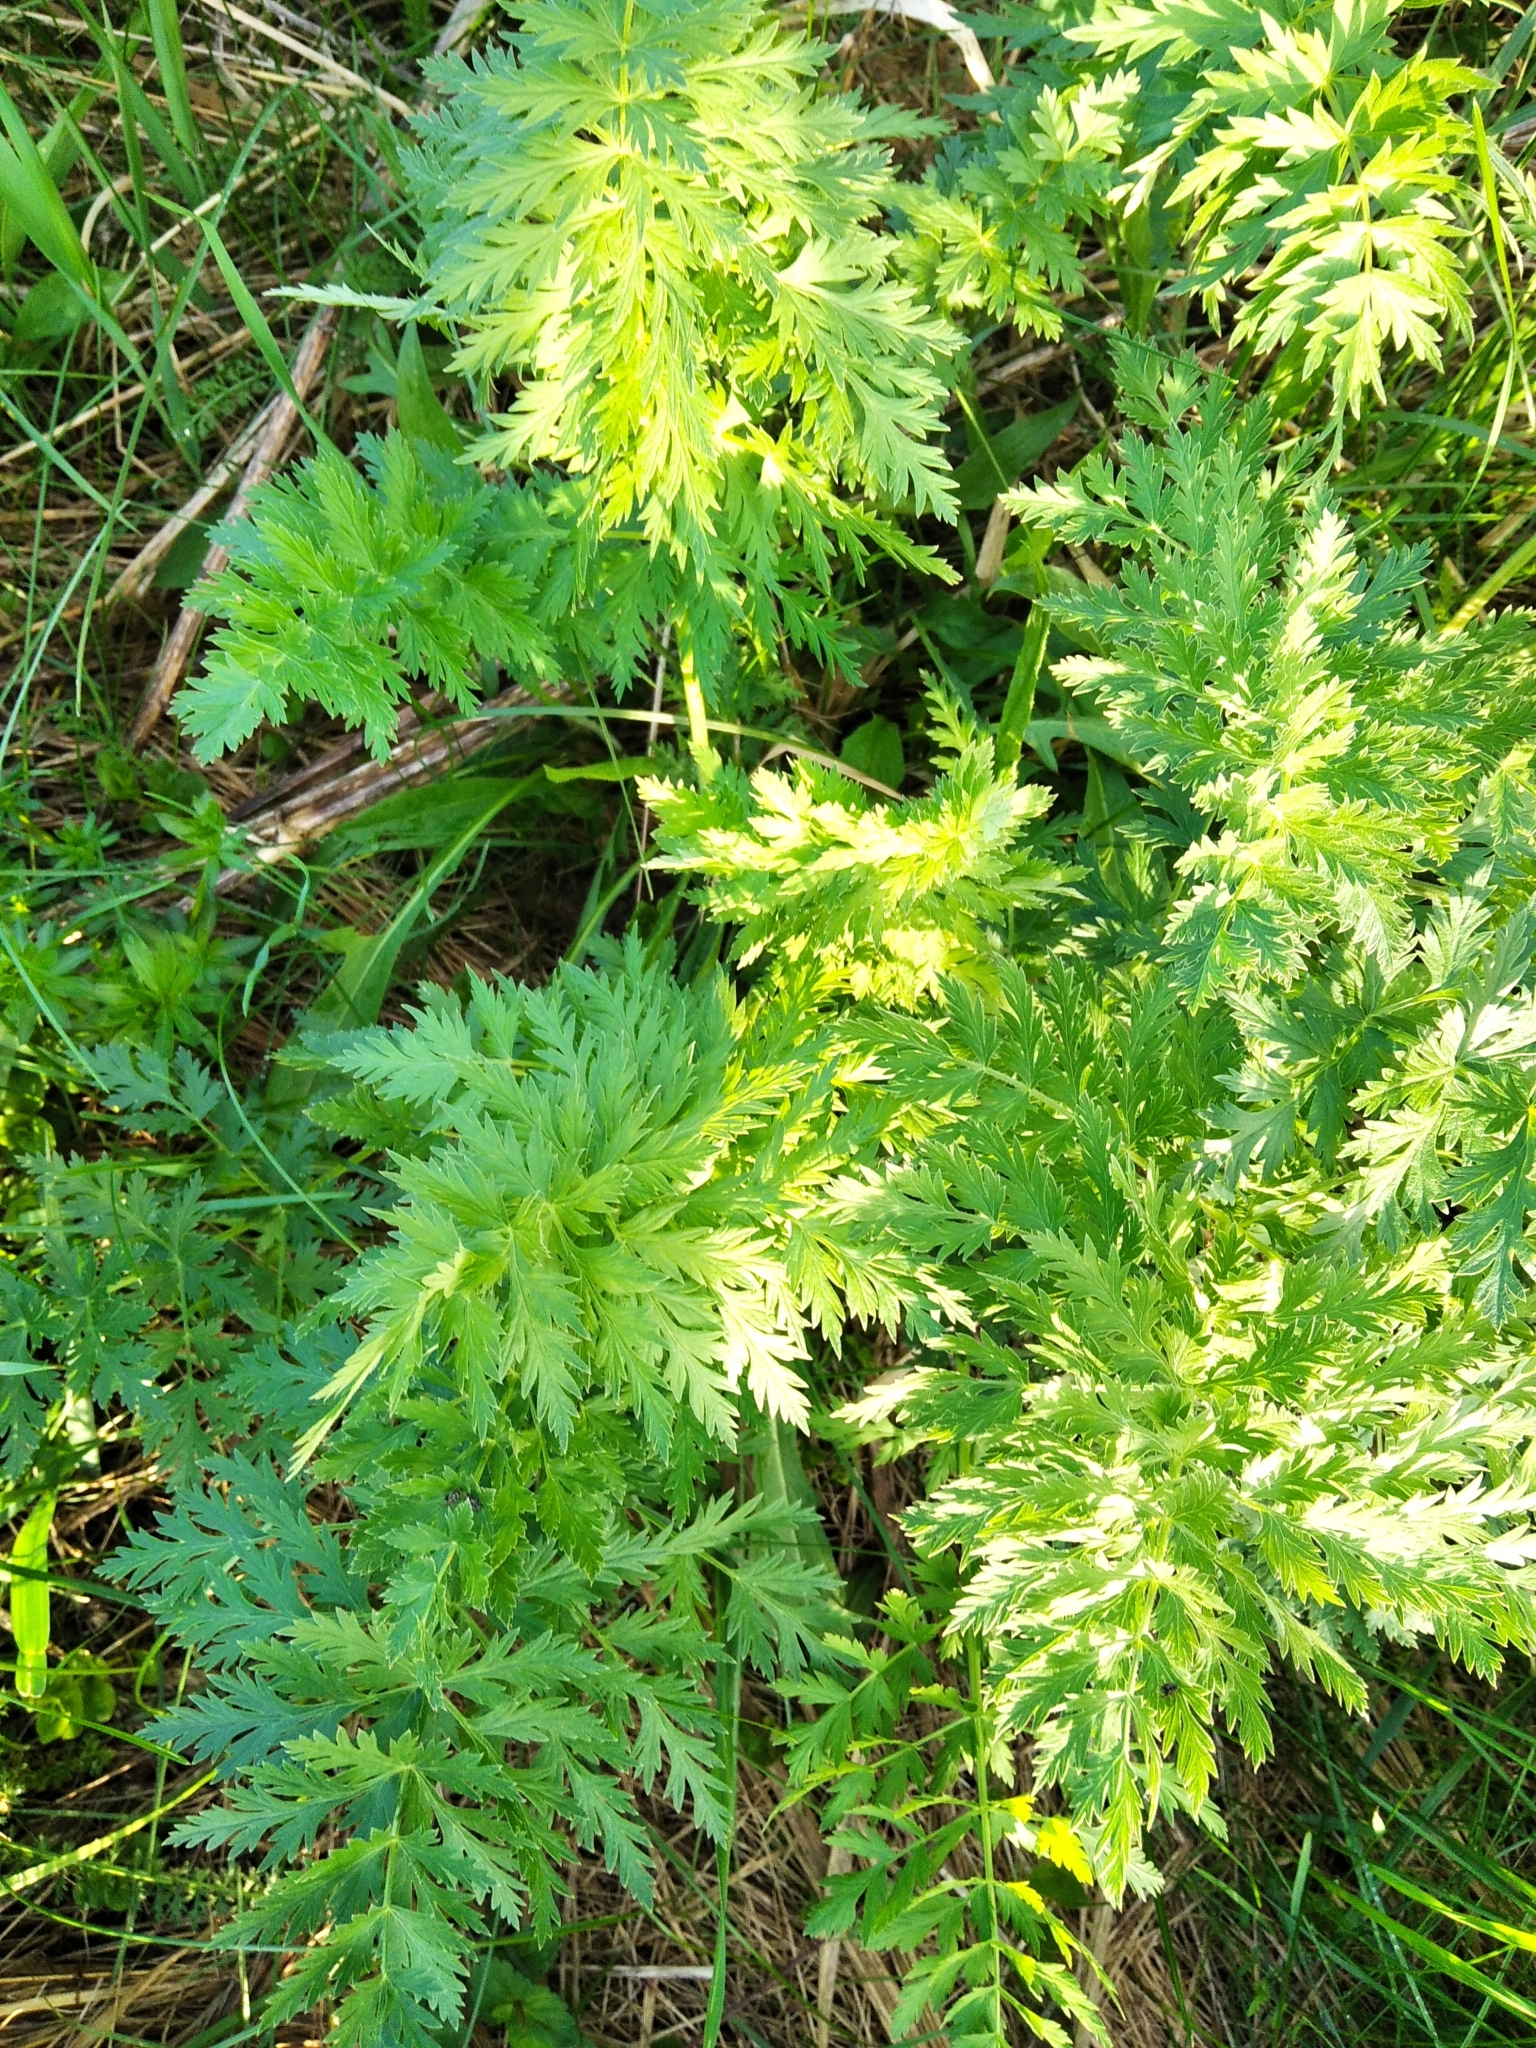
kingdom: Plantae
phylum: Tracheophyta
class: Magnoliopsida
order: Apiales
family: Apiaceae
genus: Seseli
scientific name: Seseli libanotis
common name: Mooncarrot
